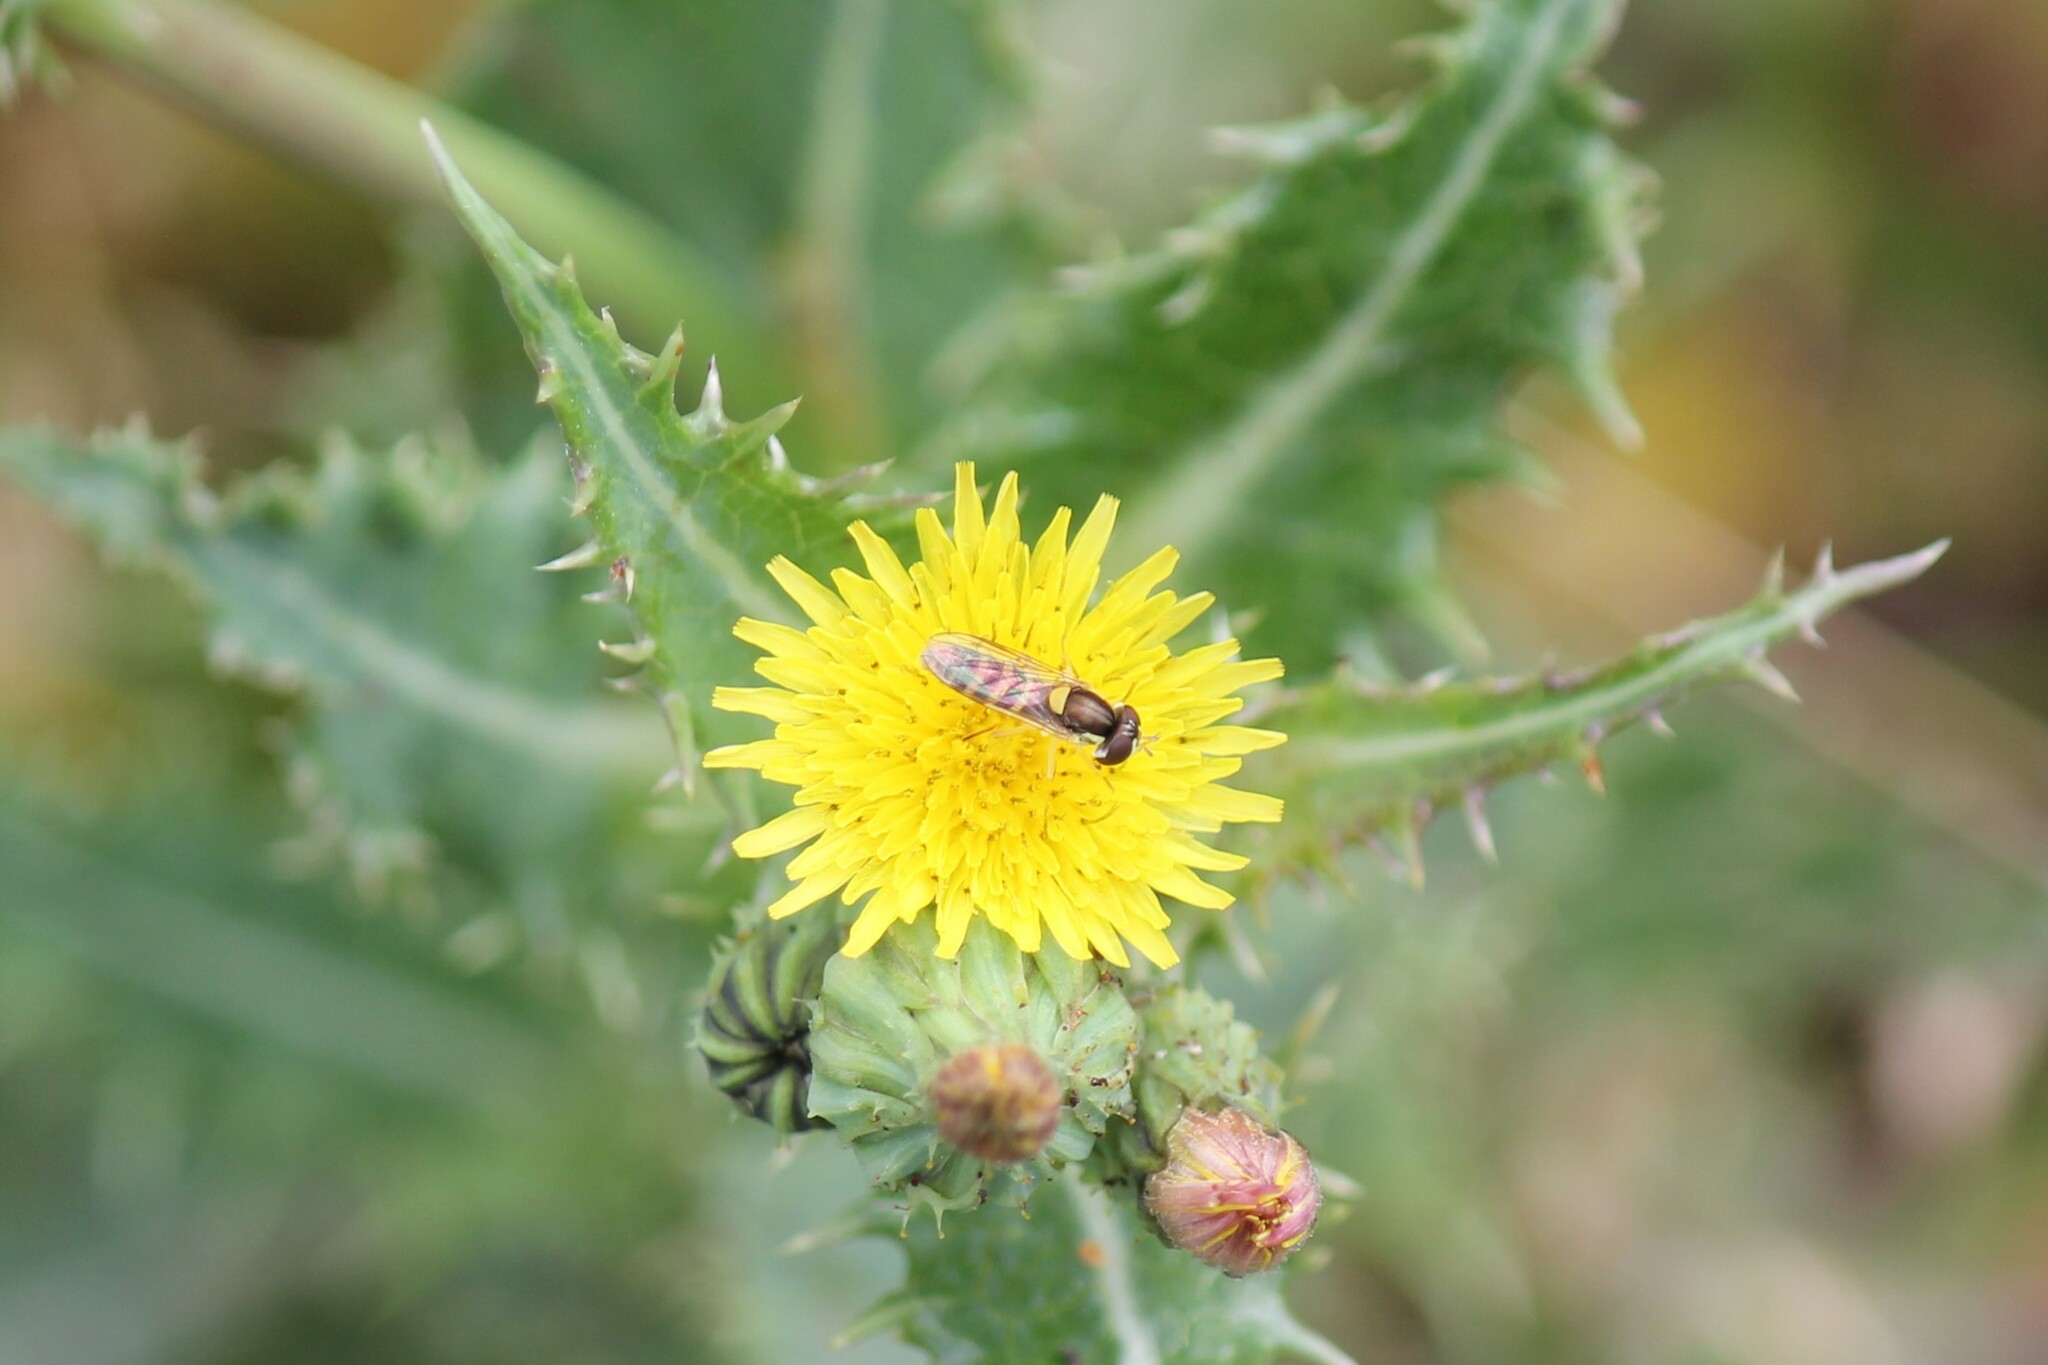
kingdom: Animalia
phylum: Arthropoda
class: Insecta
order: Diptera
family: Syrphidae
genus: Sphaerophoria
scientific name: Sphaerophoria sulphuripes
